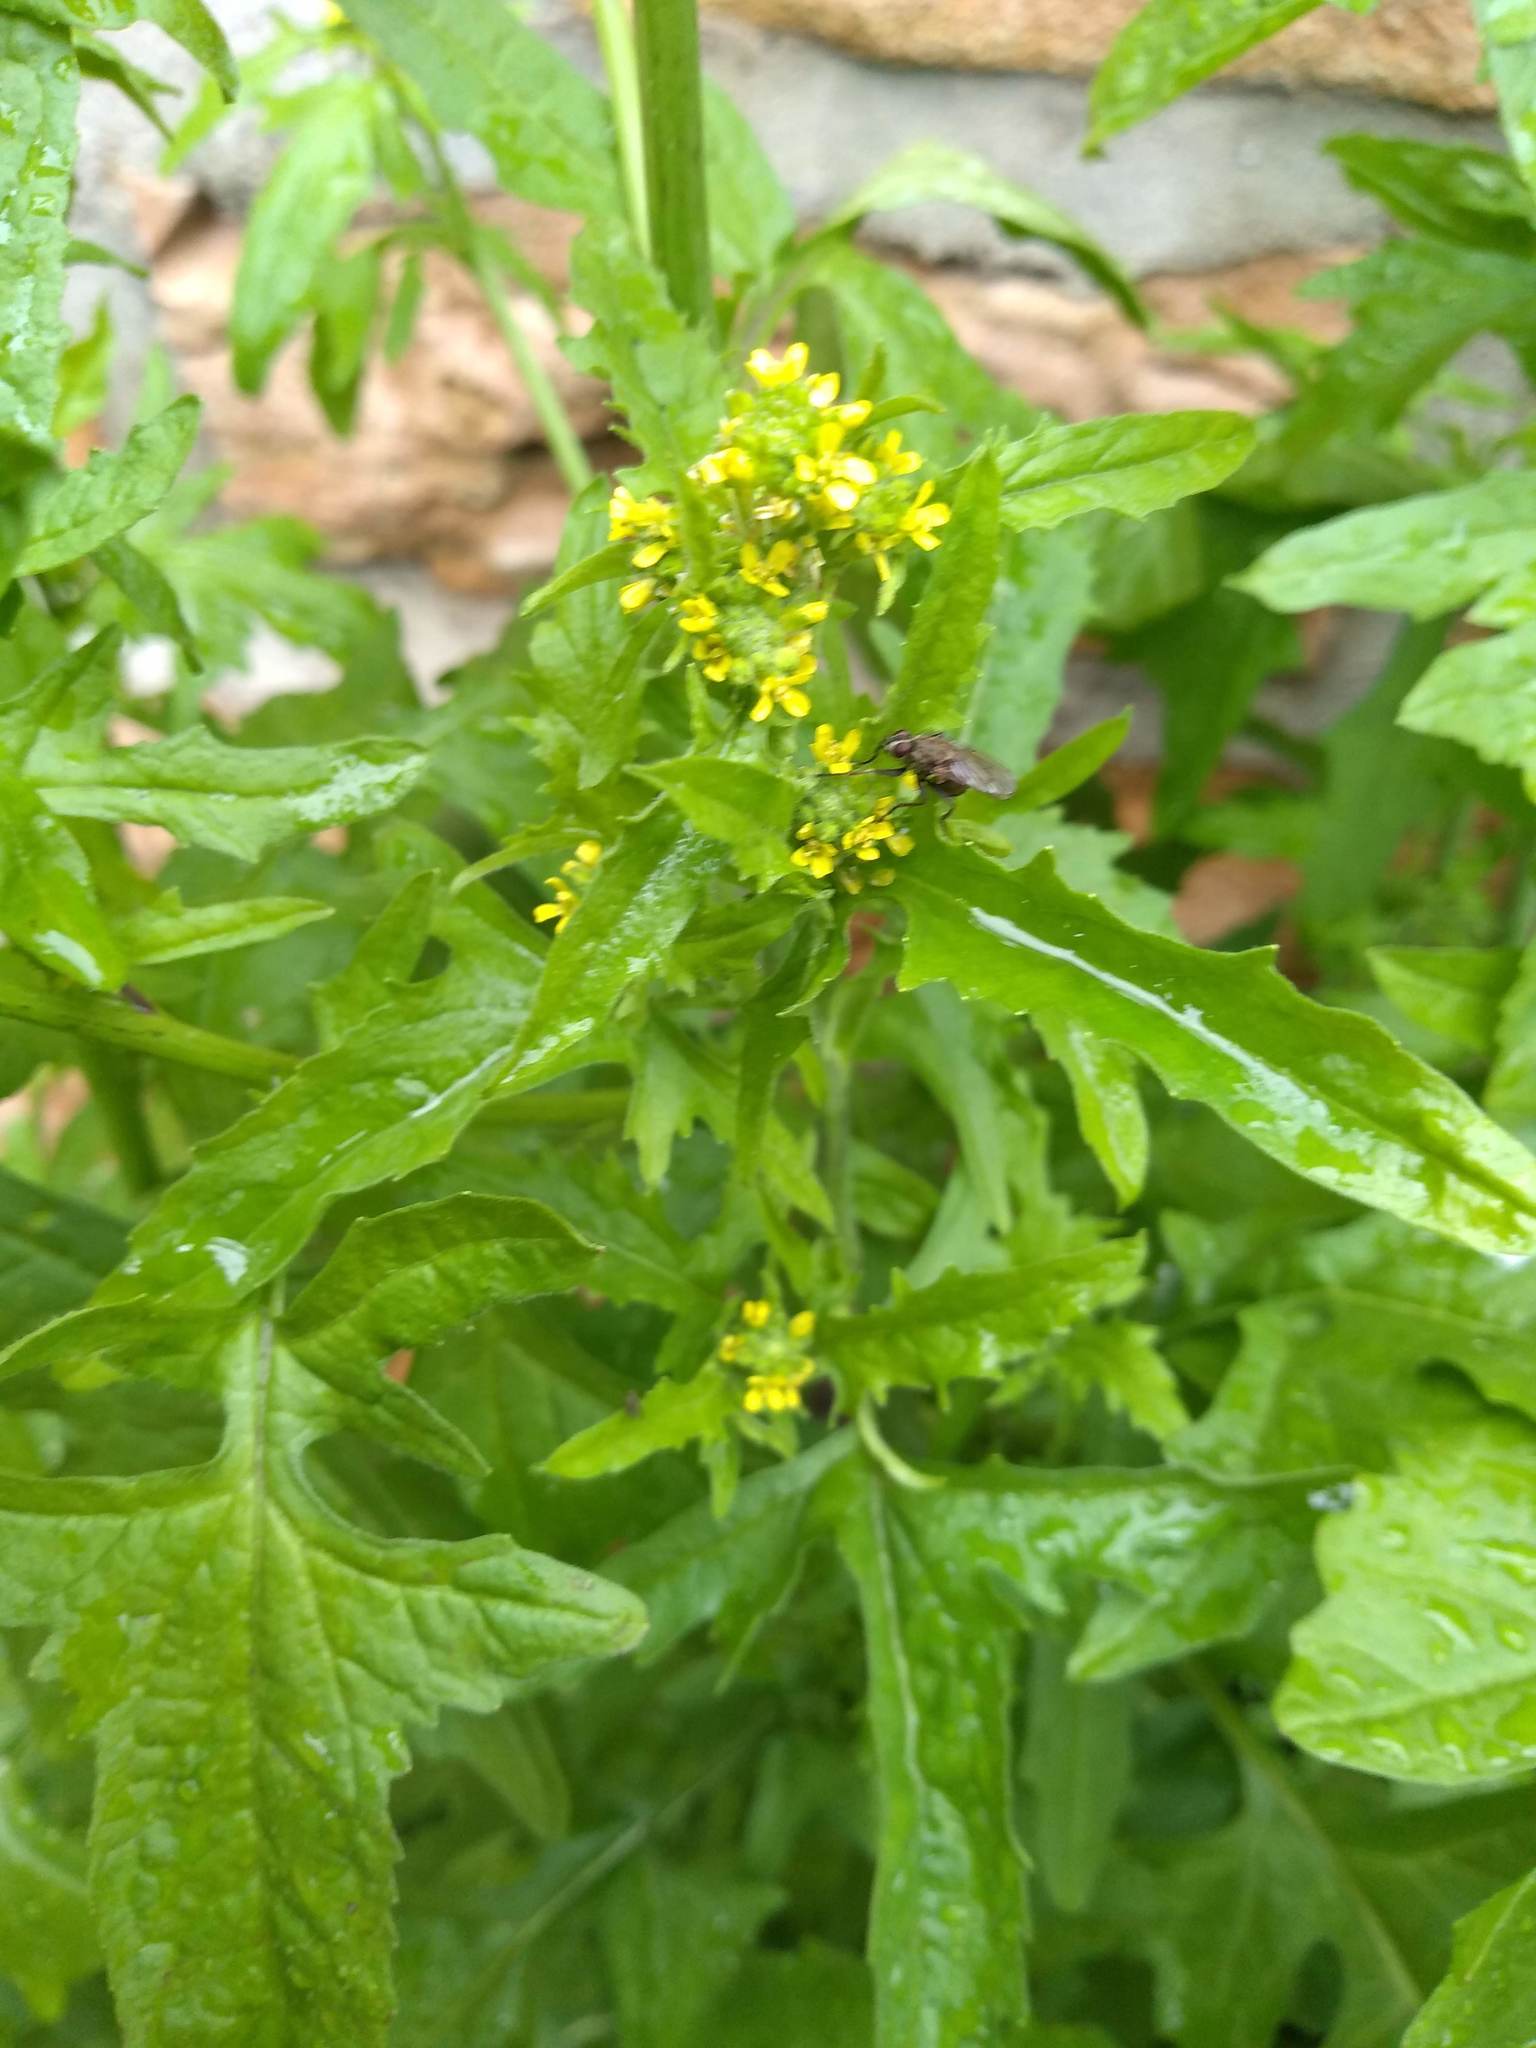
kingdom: Plantae
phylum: Tracheophyta
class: Magnoliopsida
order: Brassicales
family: Brassicaceae
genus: Sisymbrium
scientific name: Sisymbrium officinale
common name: Hedge mustard
